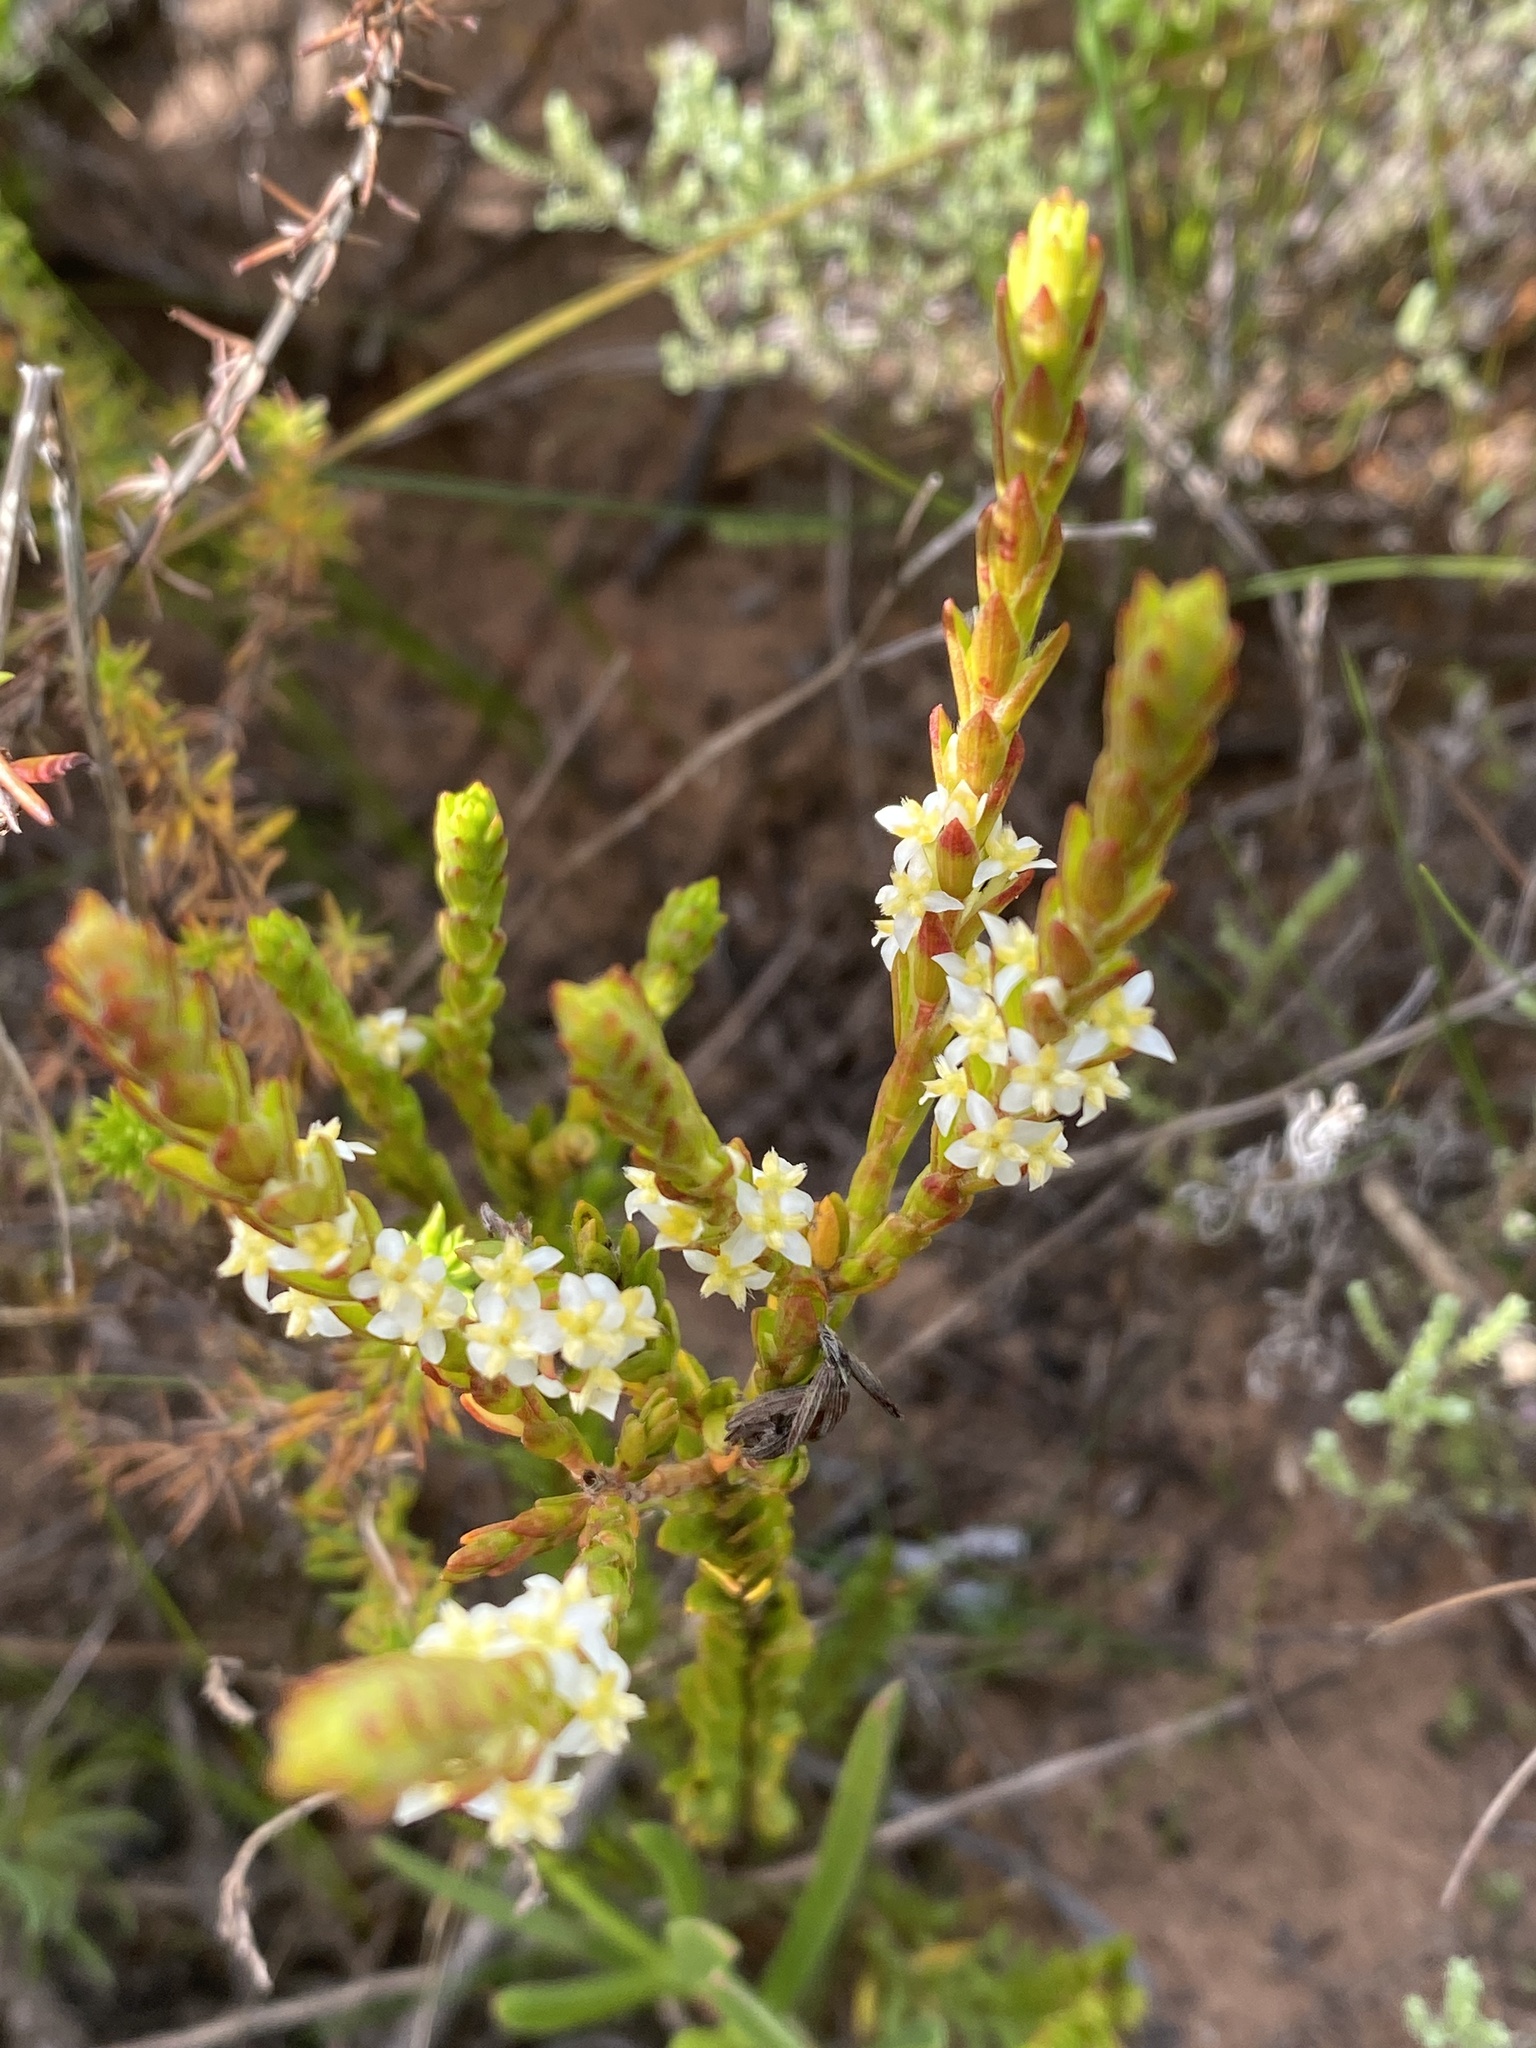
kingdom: Plantae
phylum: Tracheophyta
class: Magnoliopsida
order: Malvales
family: Thymelaeaceae
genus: Struthiola
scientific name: Struthiola striata
